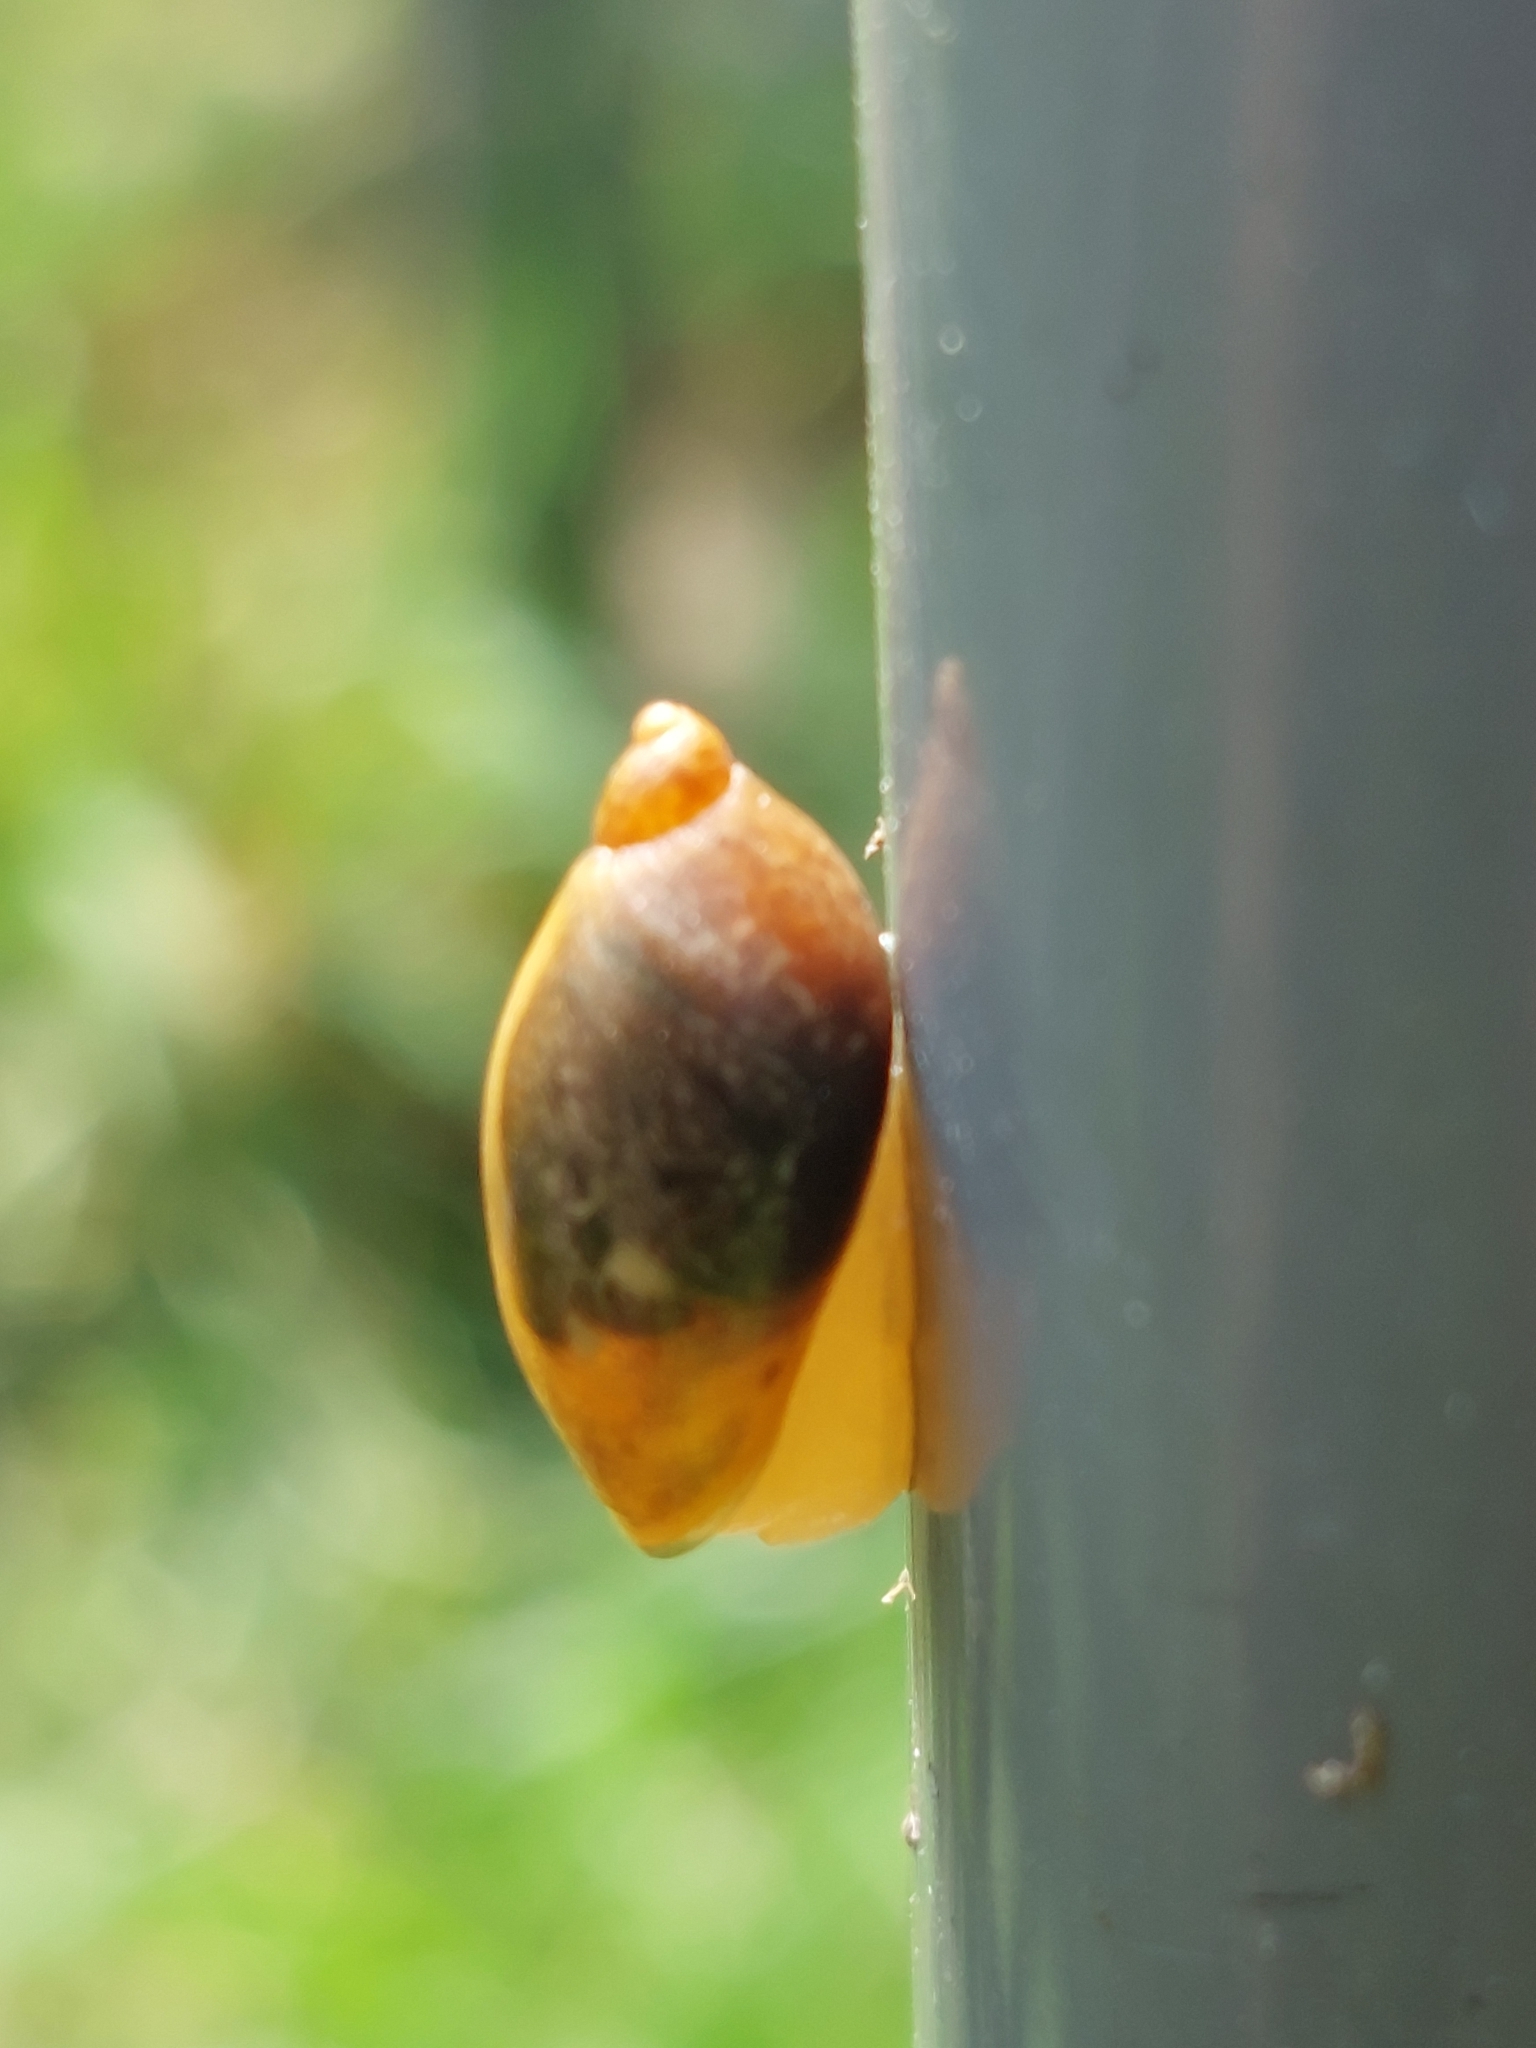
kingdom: Animalia
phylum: Mollusca
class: Gastropoda
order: Stylommatophora
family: Succineidae
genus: Succinea
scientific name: Succinea putris
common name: European ambersnail
